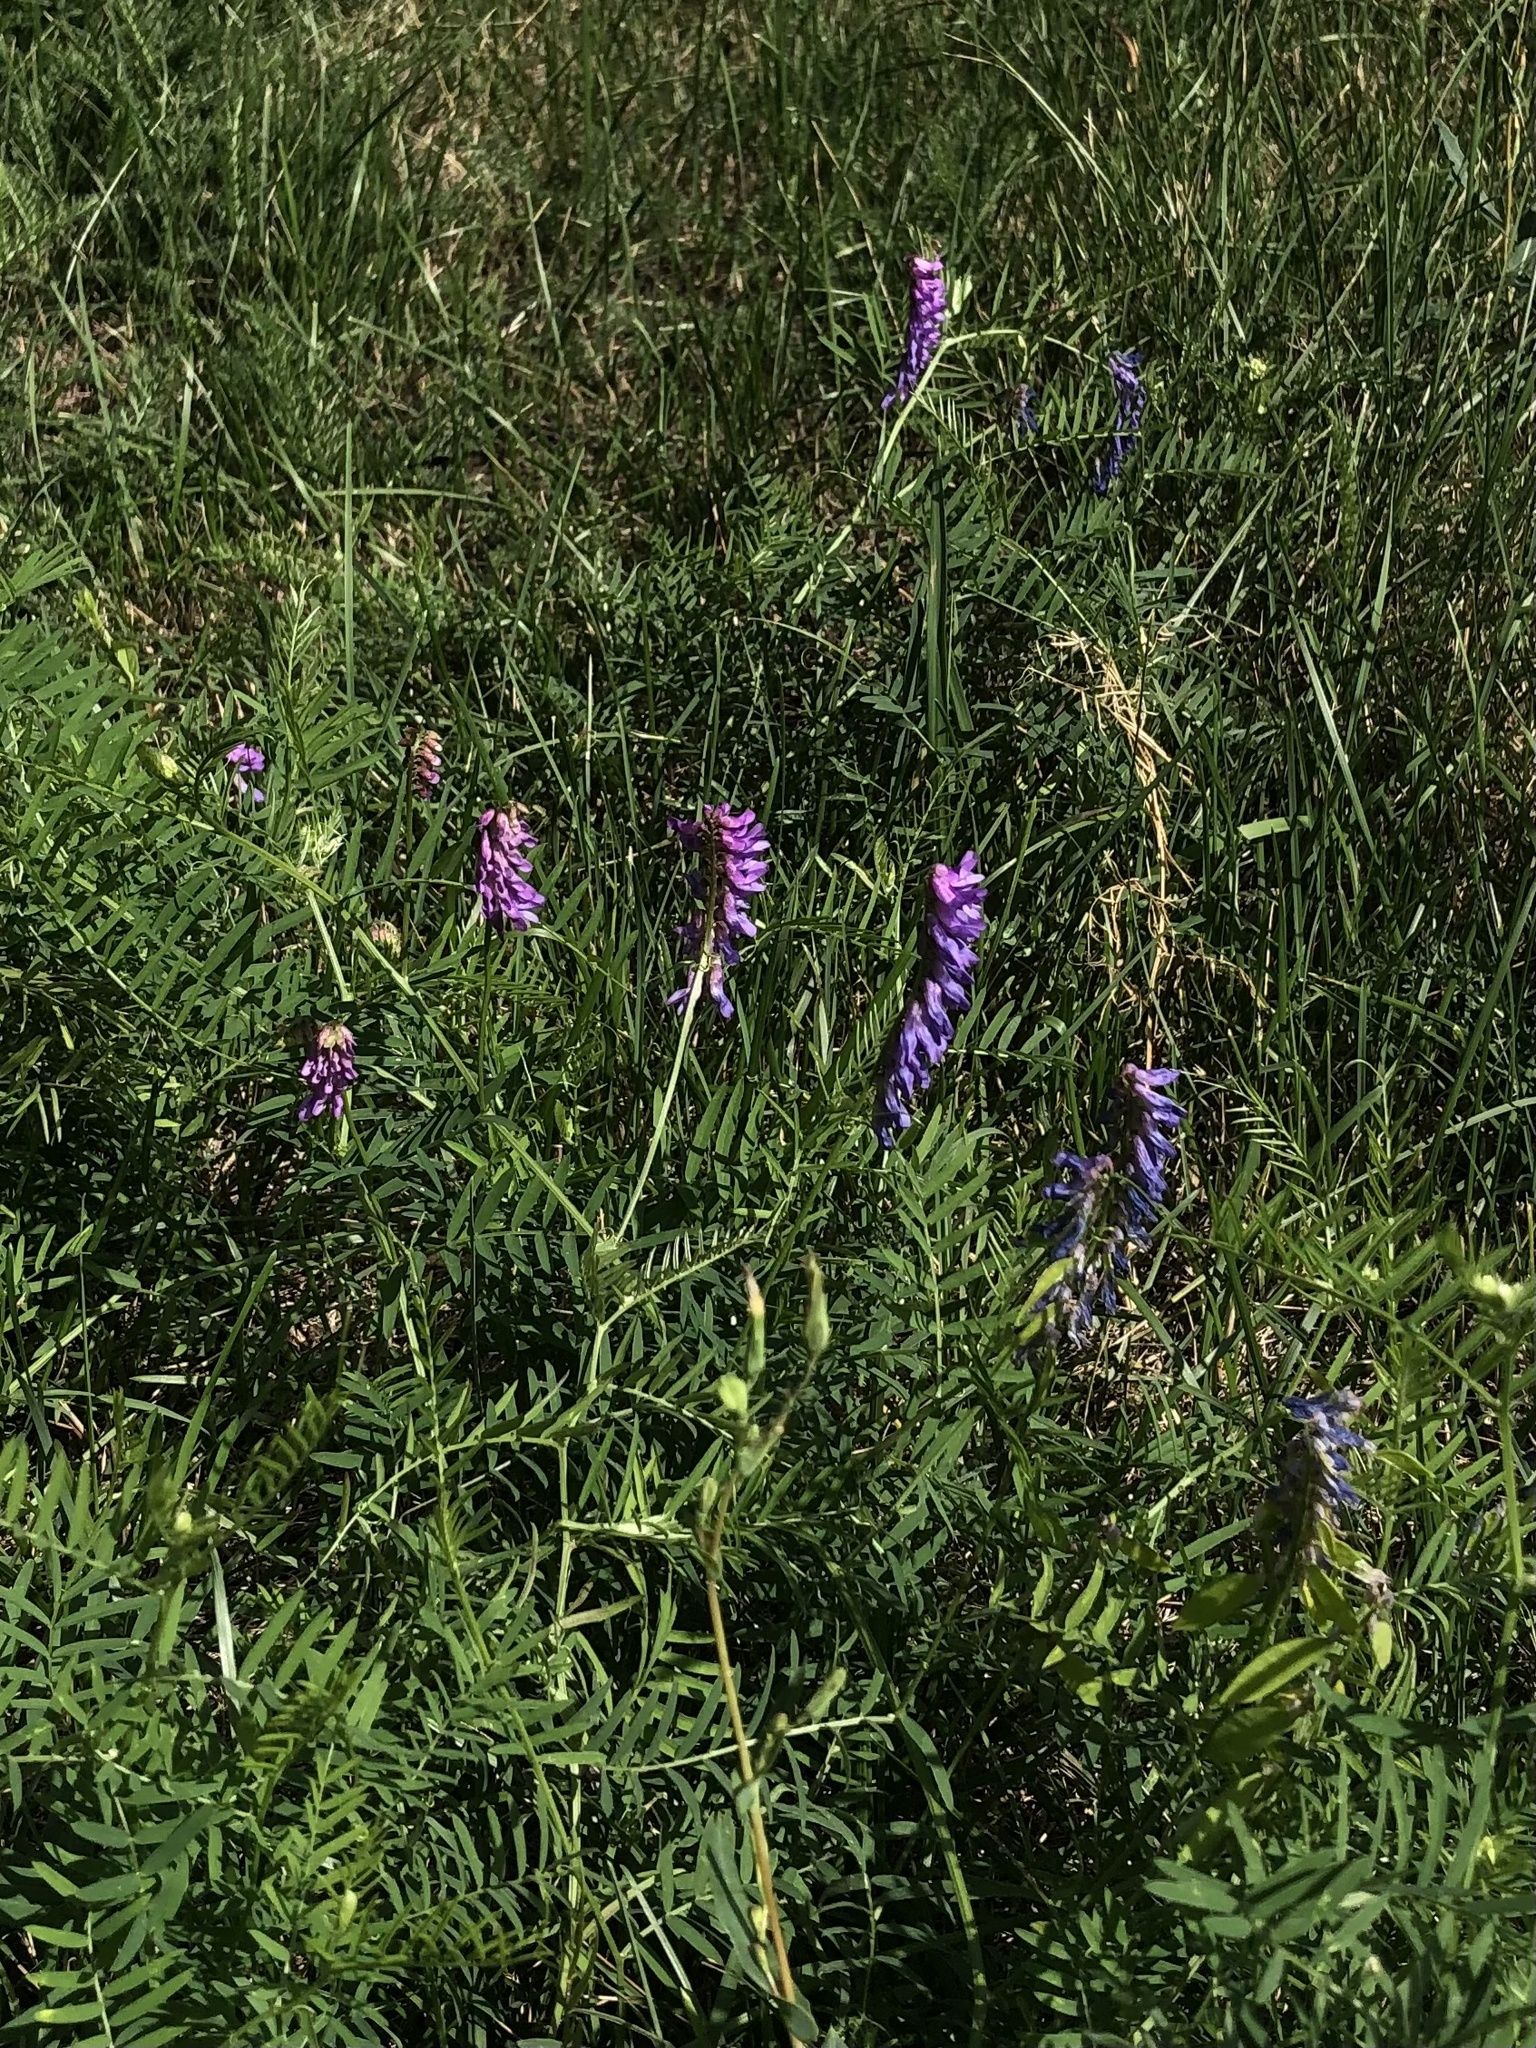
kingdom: Plantae
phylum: Tracheophyta
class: Magnoliopsida
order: Fabales
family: Fabaceae
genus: Vicia
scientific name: Vicia cracca
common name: Bird vetch
